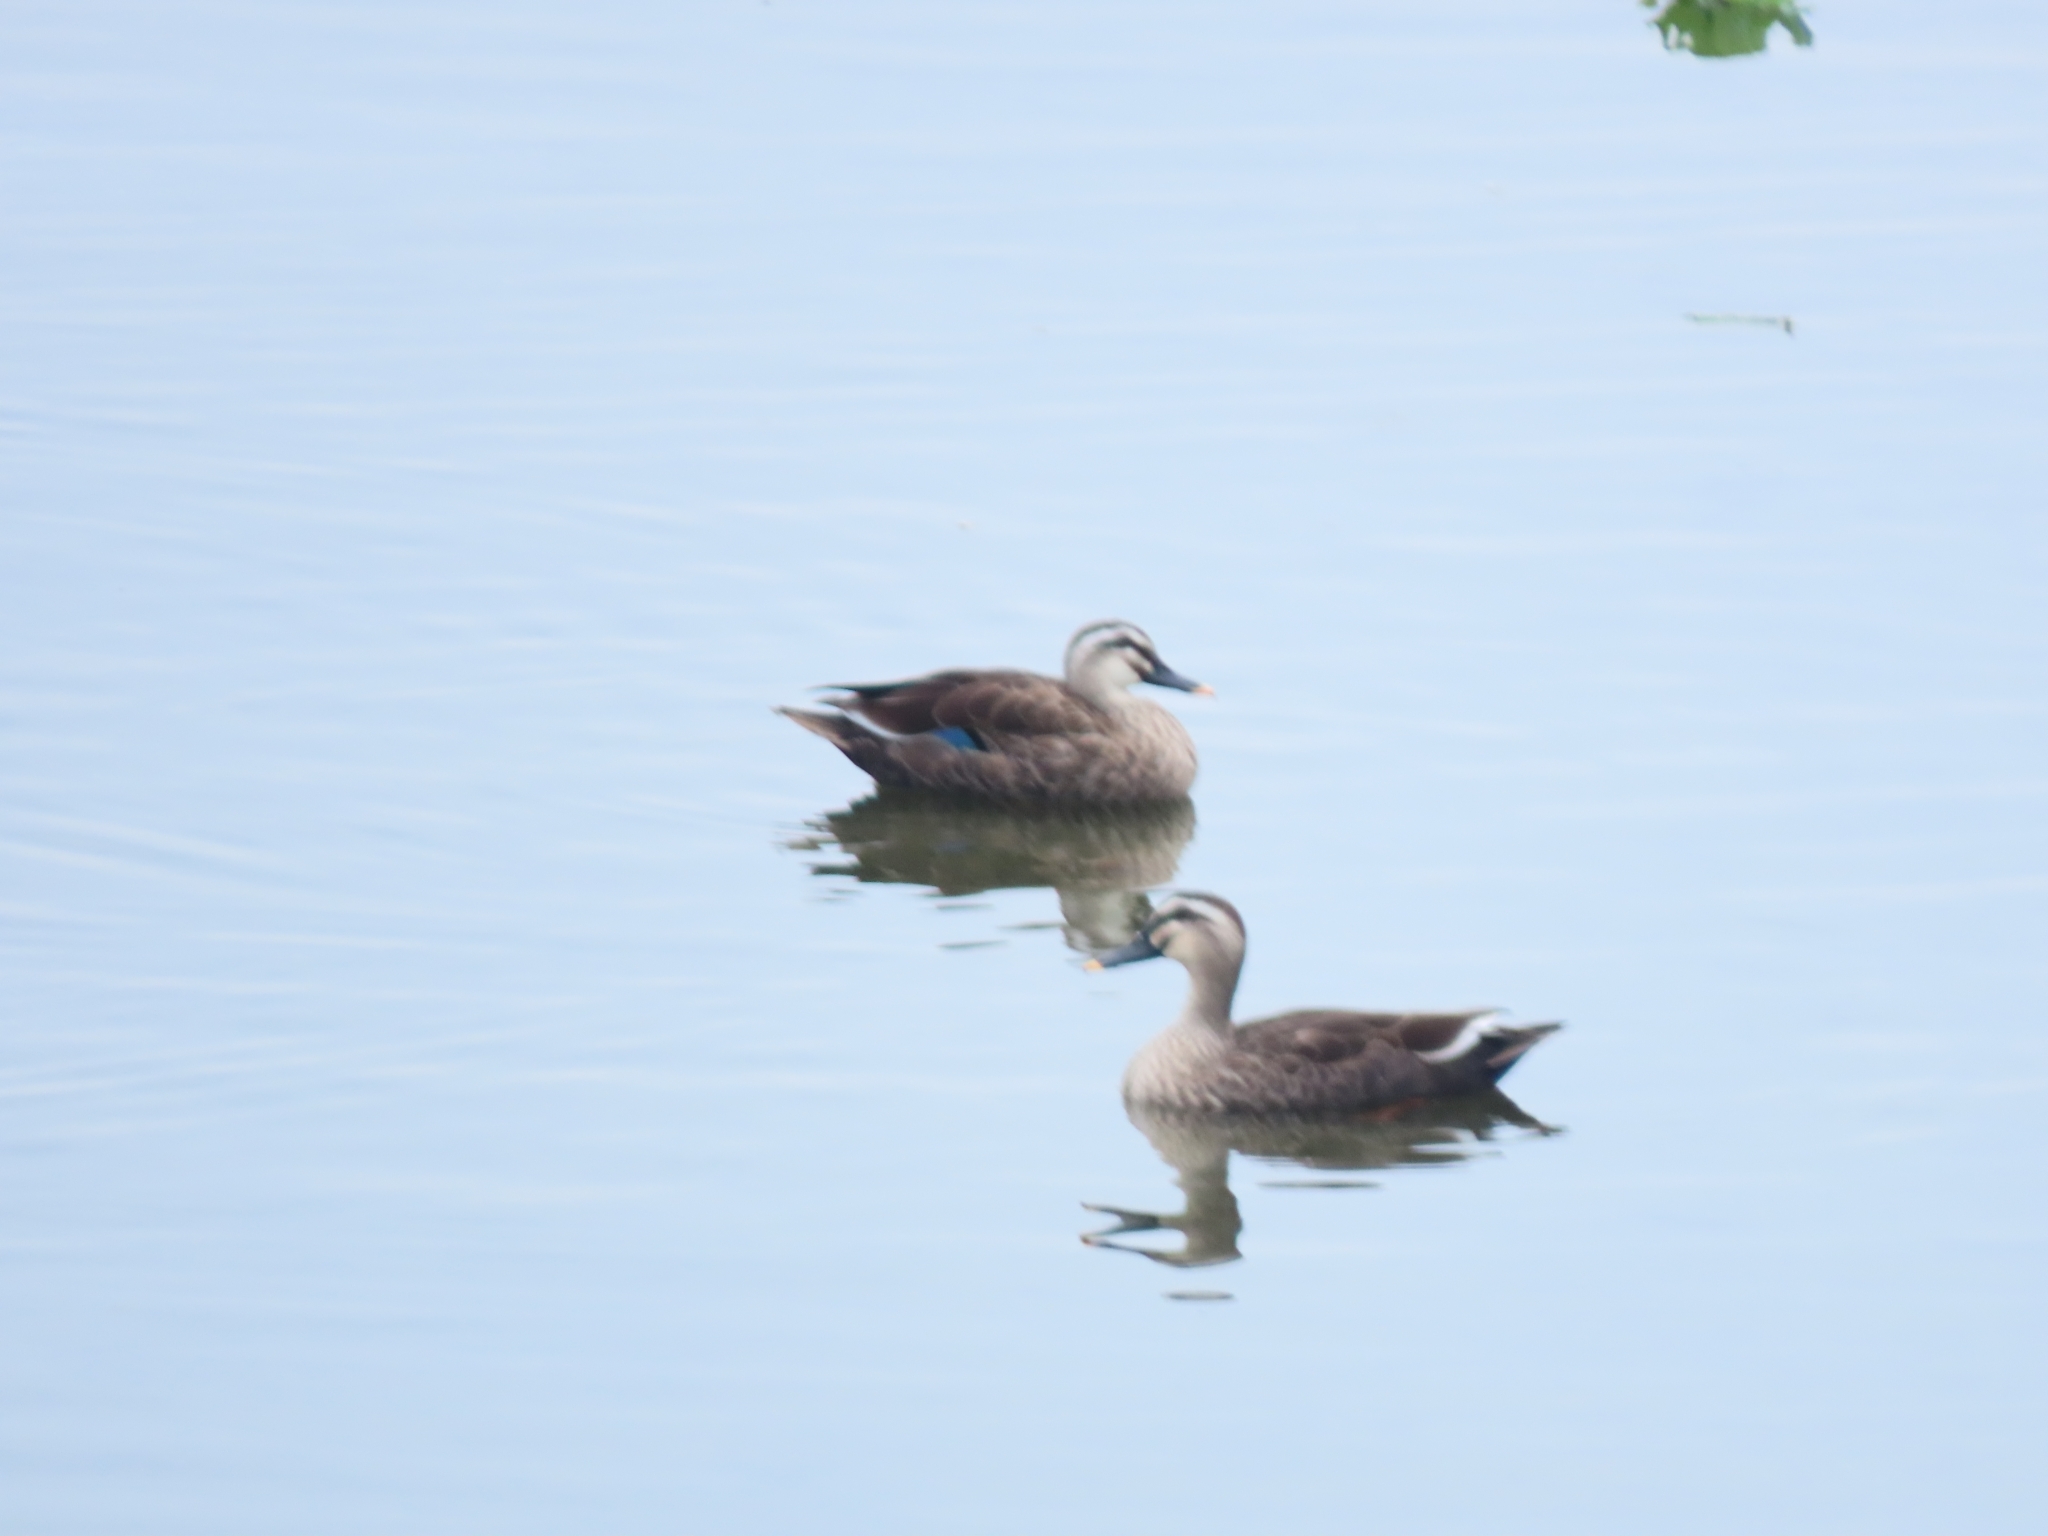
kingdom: Animalia
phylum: Chordata
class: Aves
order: Anseriformes
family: Anatidae
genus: Anas
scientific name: Anas zonorhyncha
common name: Eastern spot-billed duck
